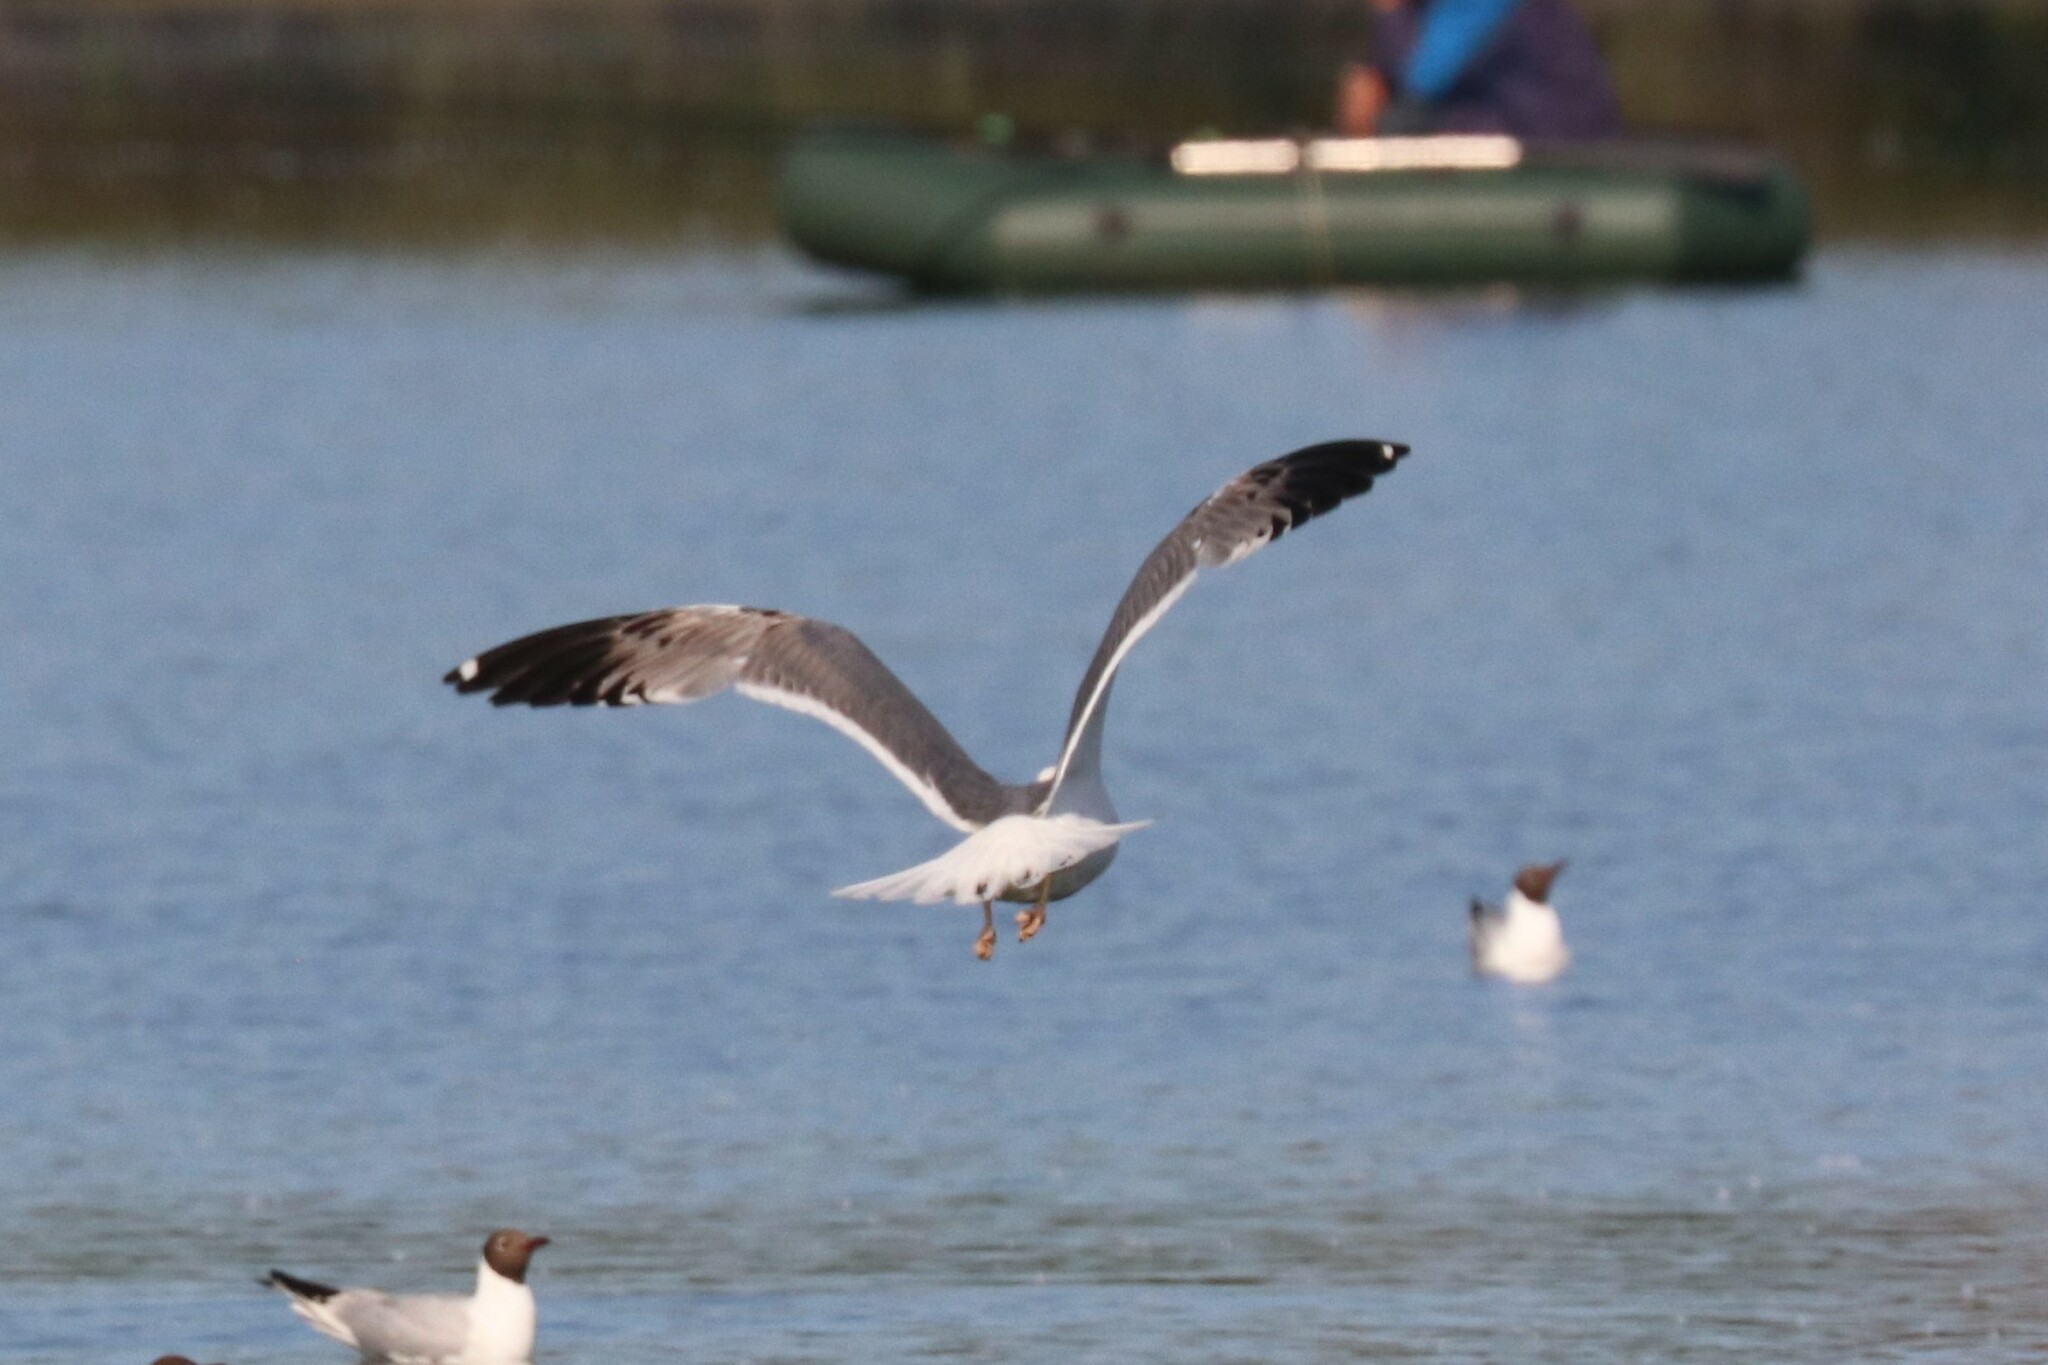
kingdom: Animalia
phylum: Chordata
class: Aves
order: Charadriiformes
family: Laridae
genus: Larus
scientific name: Larus fuscus
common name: Lesser black-backed gull
